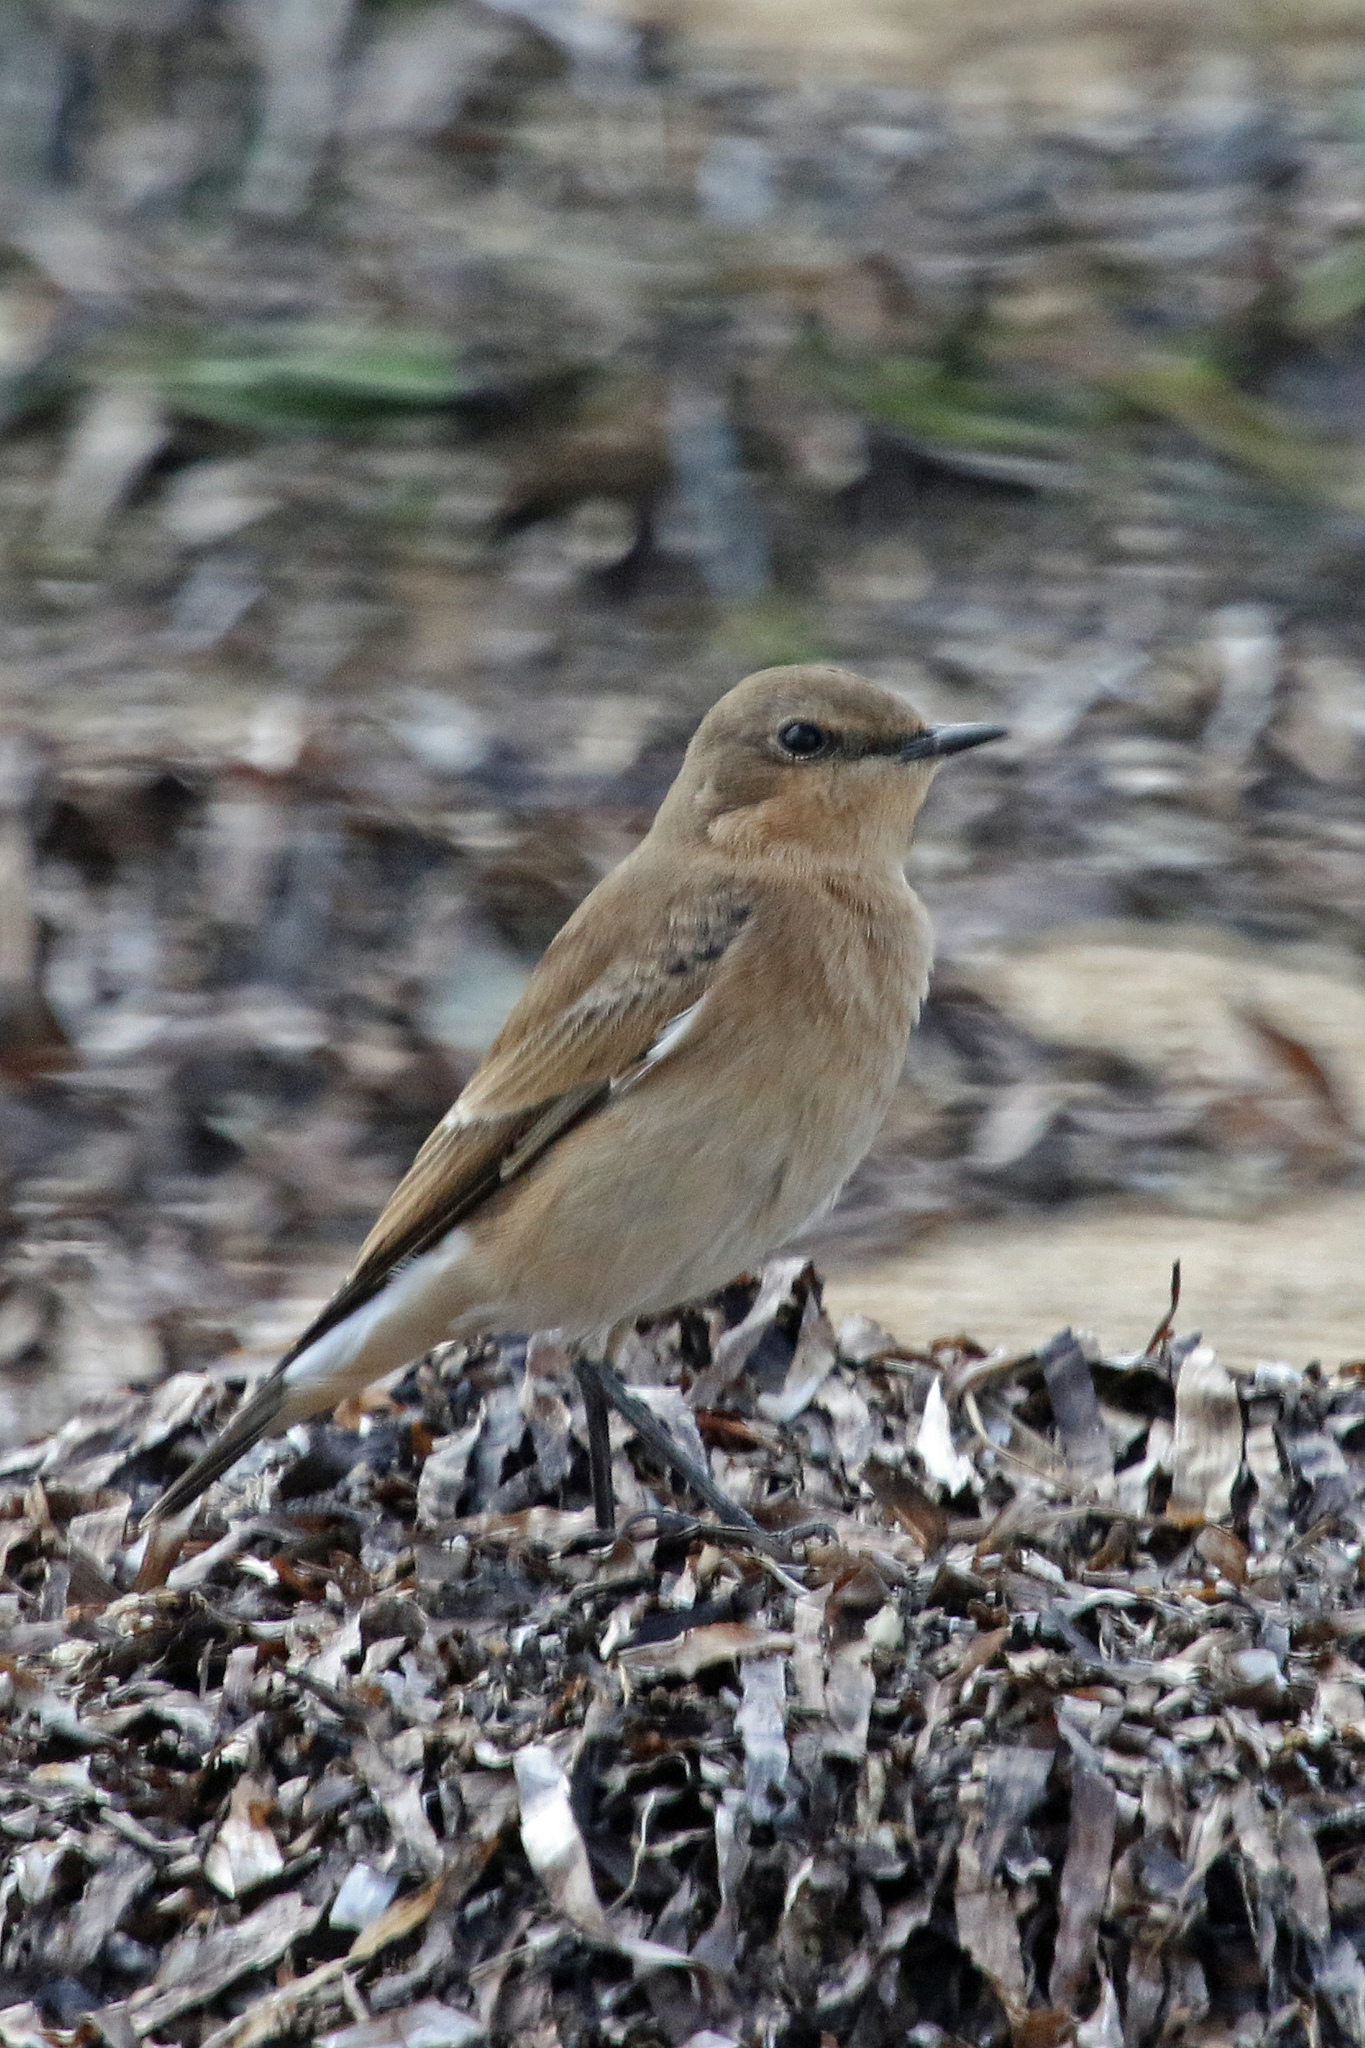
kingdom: Animalia
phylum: Chordata
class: Aves
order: Passeriformes
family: Muscicapidae
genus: Oenanthe
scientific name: Oenanthe oenanthe
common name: Northern wheatear
